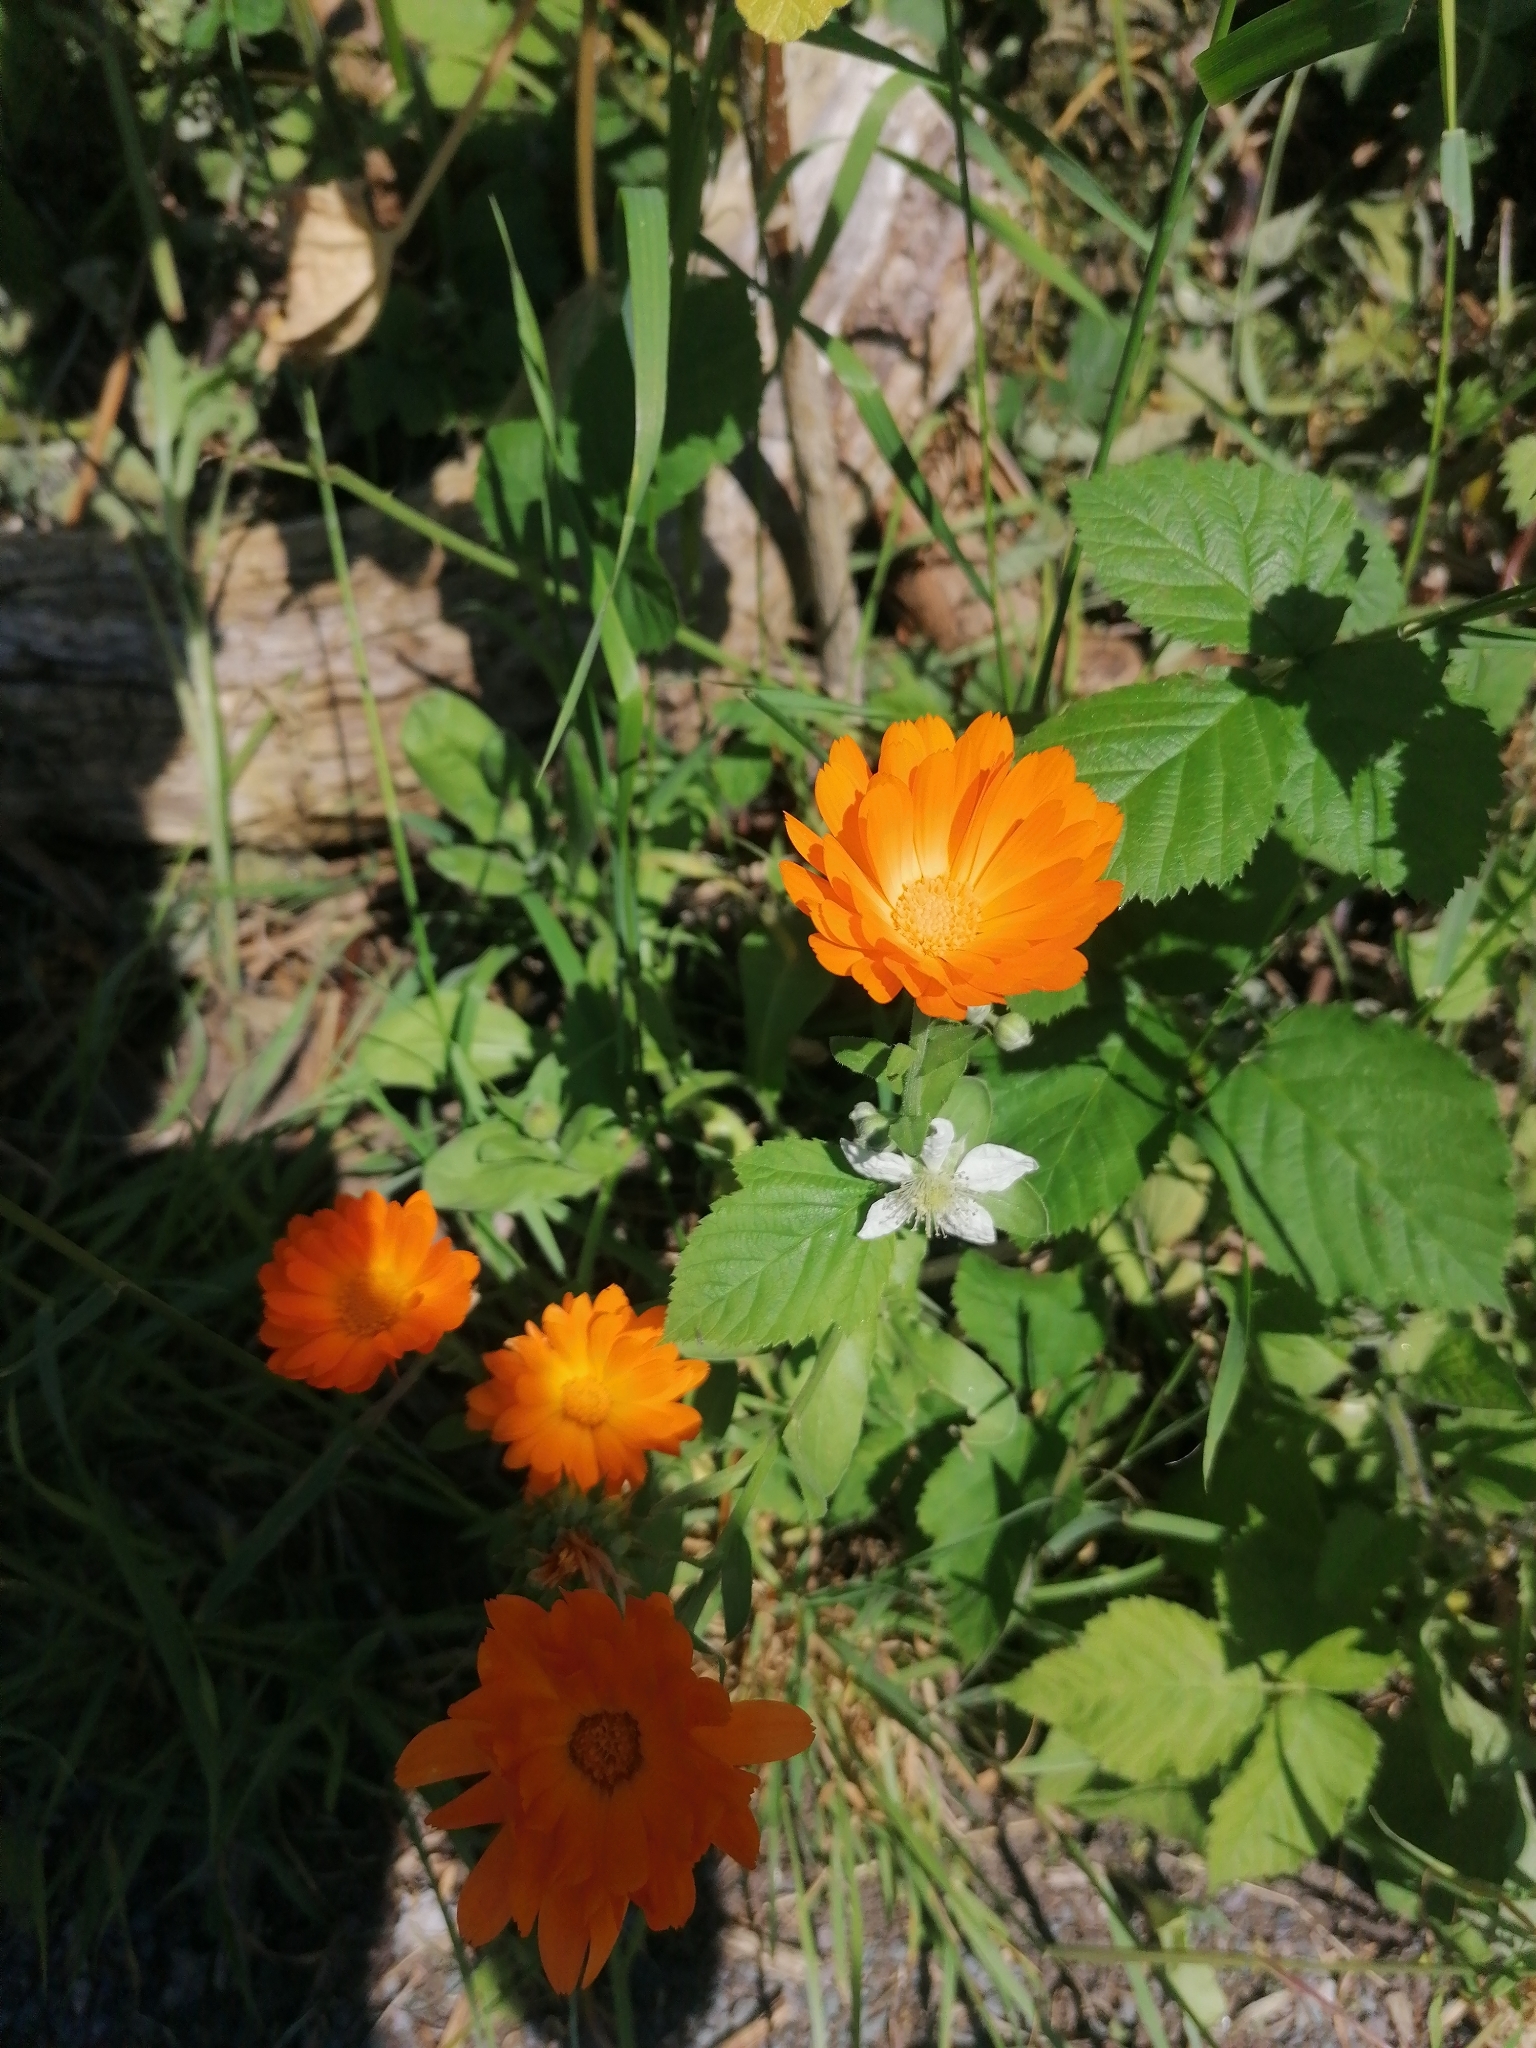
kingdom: Plantae
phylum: Tracheophyta
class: Magnoliopsida
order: Asterales
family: Asteraceae
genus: Calendula
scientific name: Calendula officinalis
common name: Pot marigold
